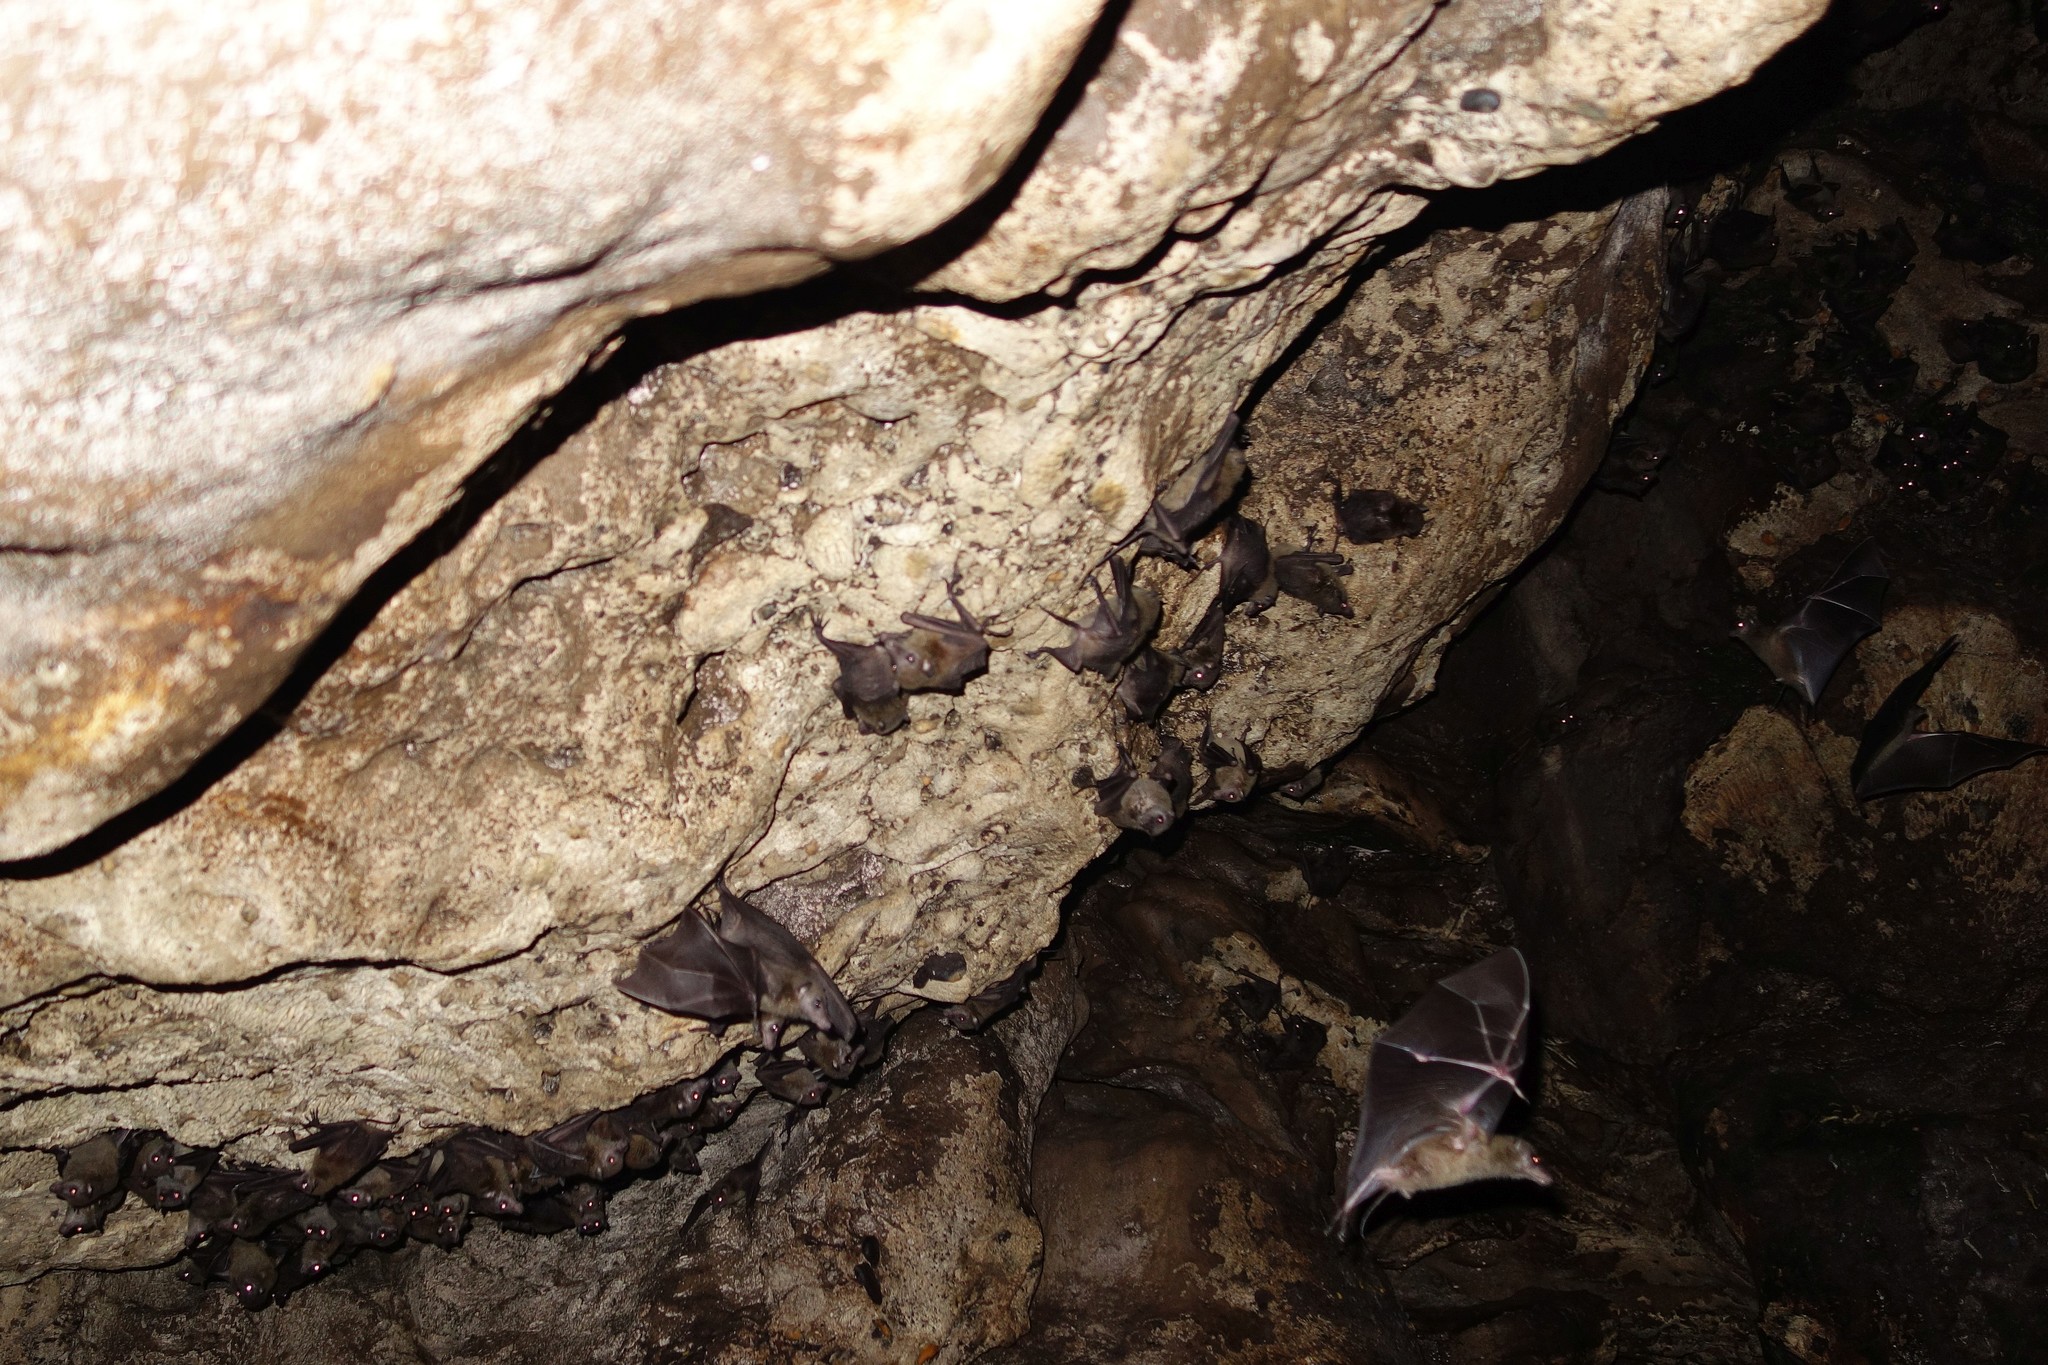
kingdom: Animalia
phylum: Chordata
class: Mammalia
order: Chiroptera
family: Pteropodidae
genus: Notopteris
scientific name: Notopteris macdonaldii
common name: Fijian long-tailed fruit bat
